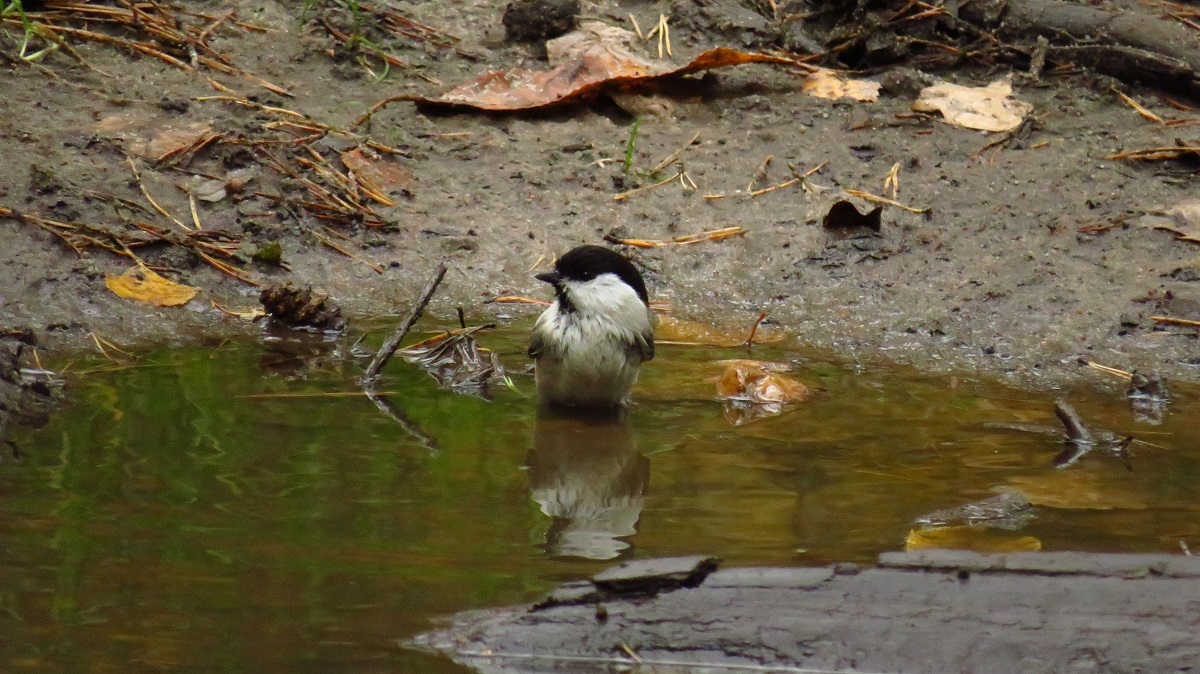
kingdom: Animalia
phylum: Chordata
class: Aves
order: Passeriformes
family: Paridae
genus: Poecile
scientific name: Poecile montanus
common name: Willow tit
